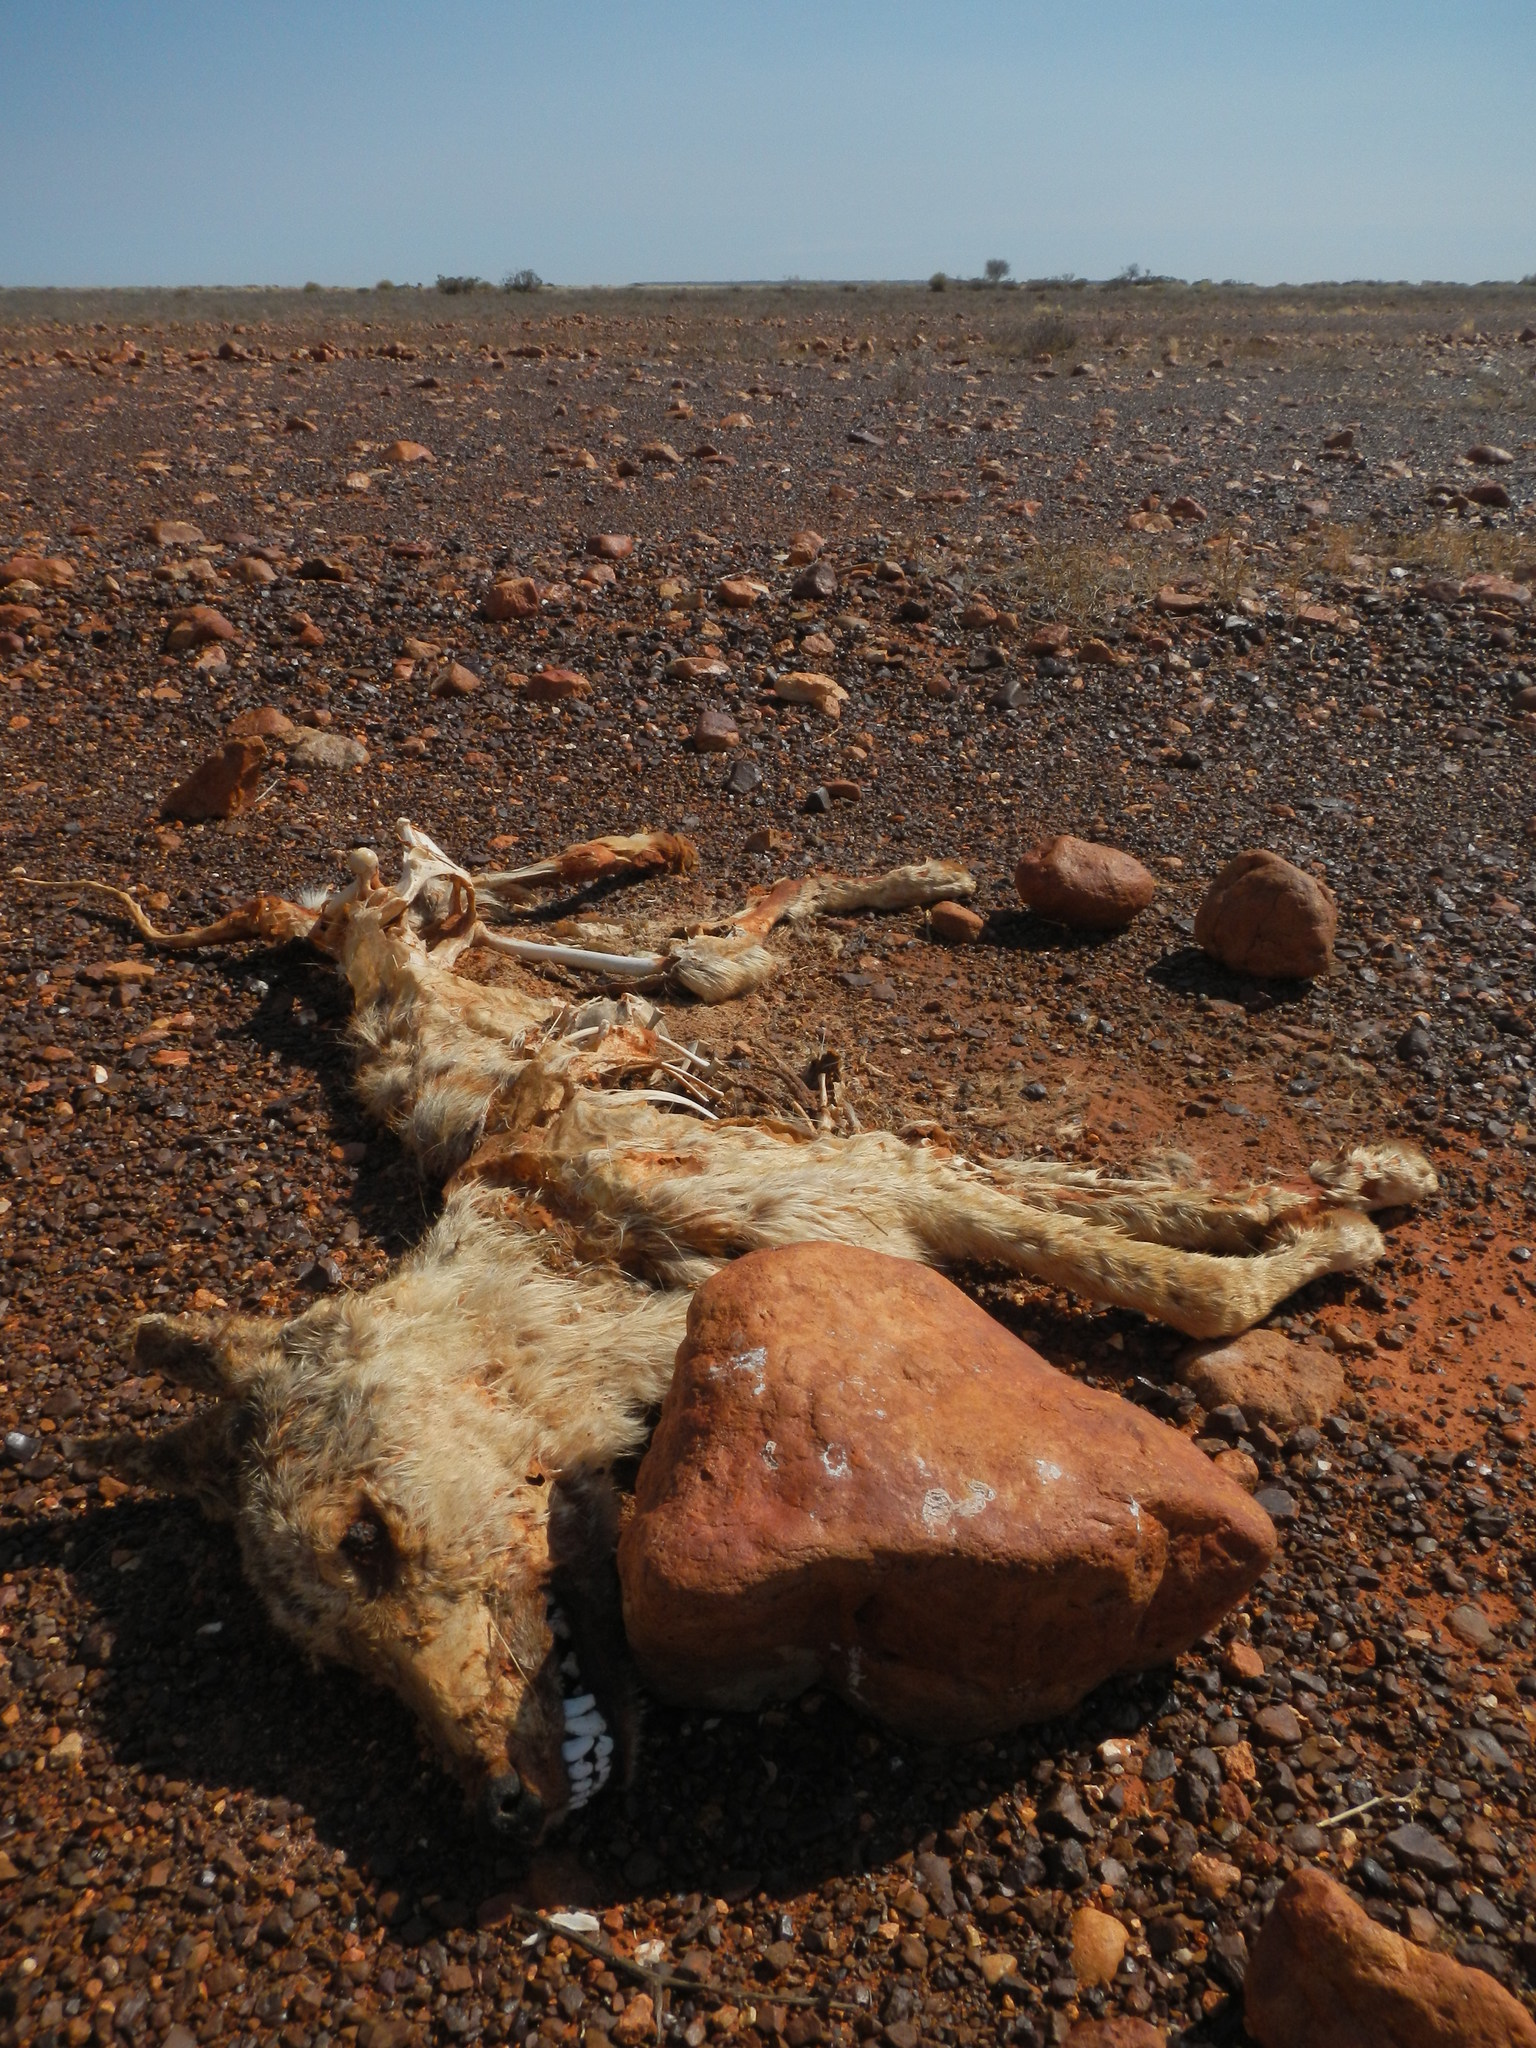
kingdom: Animalia
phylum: Chordata
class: Mammalia
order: Carnivora
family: Canidae
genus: Canis
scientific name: Canis lupus
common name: Gray wolf
